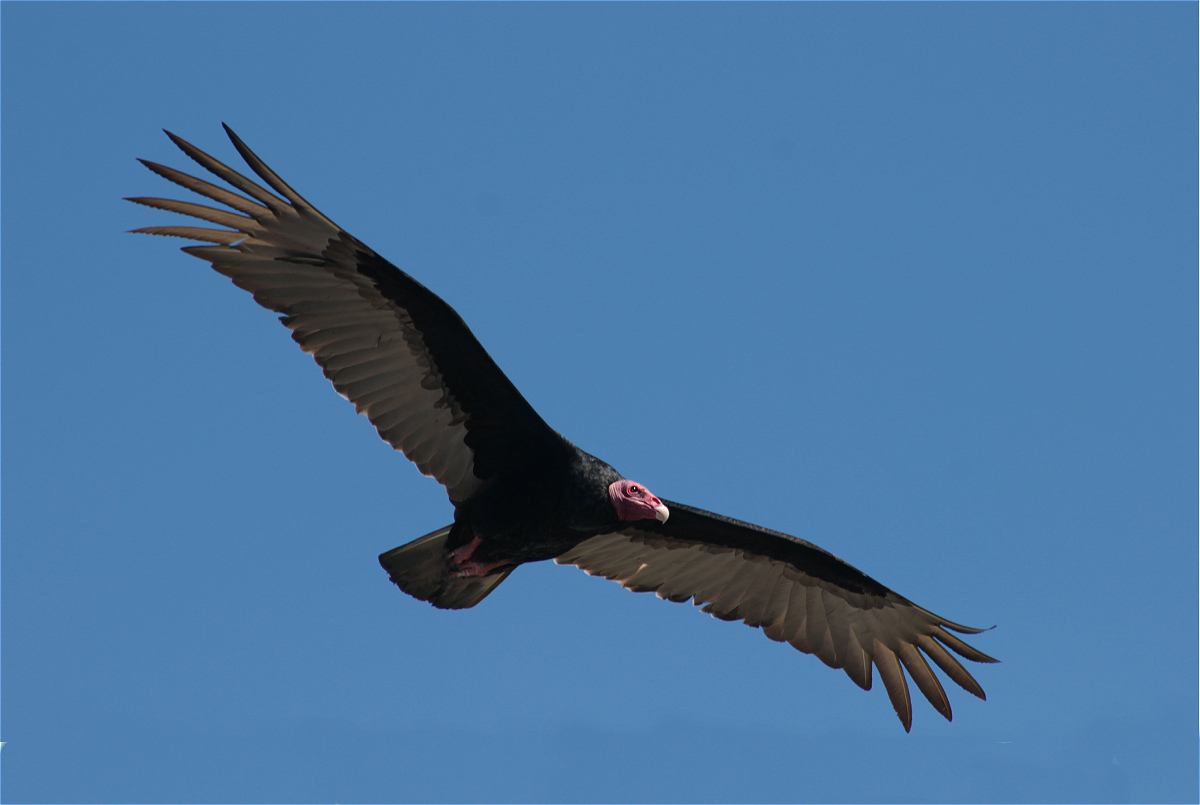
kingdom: Animalia
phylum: Chordata
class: Aves
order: Accipitriformes
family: Cathartidae
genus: Cathartes
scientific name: Cathartes aura
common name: Turkey vulture
